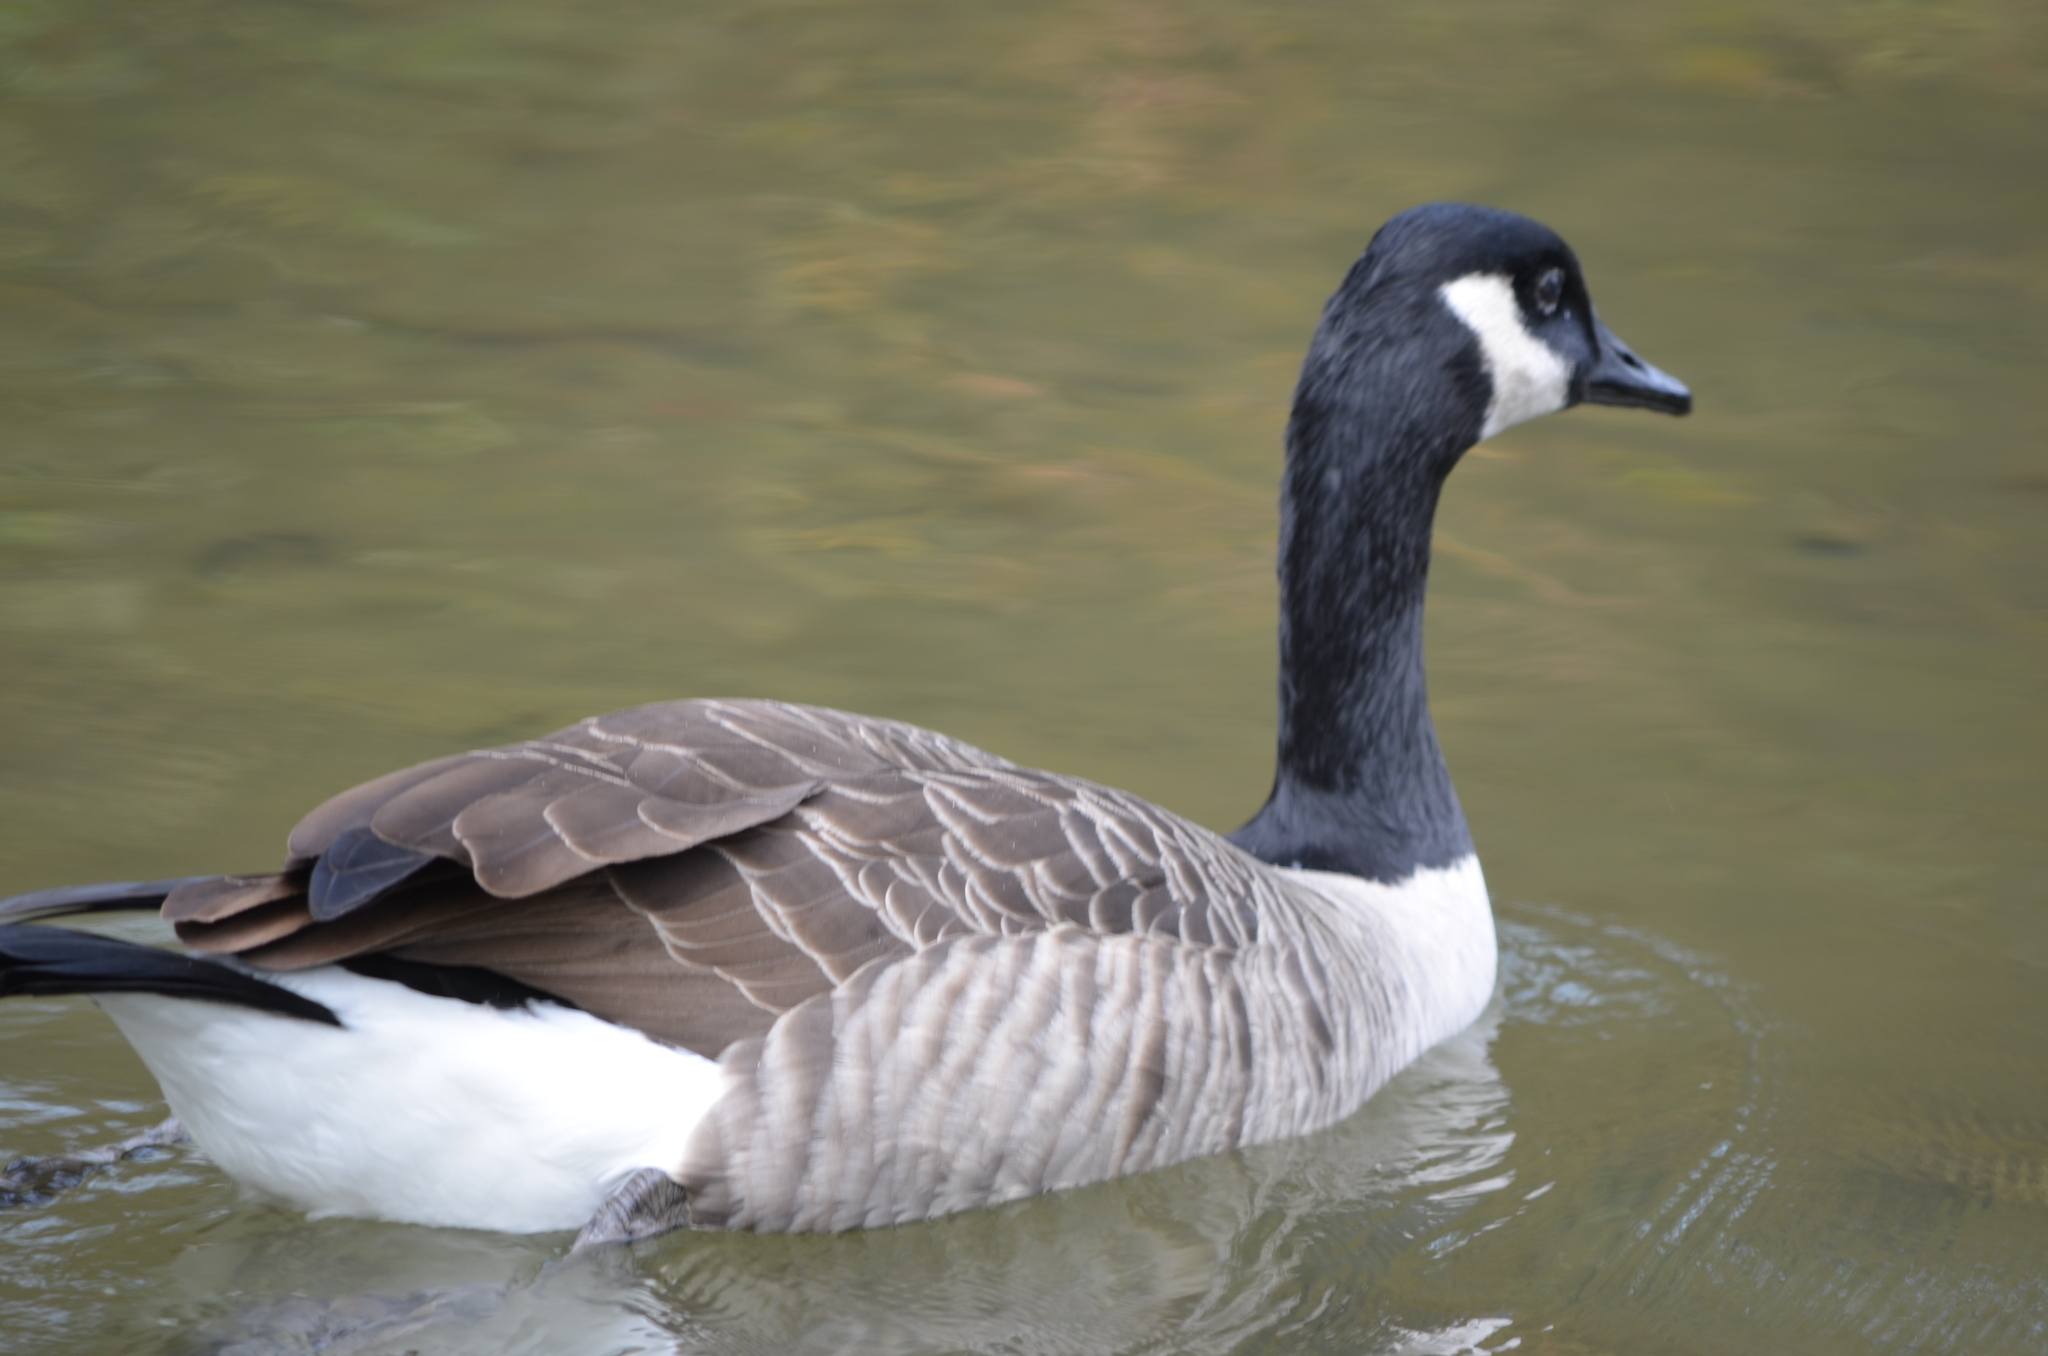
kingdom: Animalia
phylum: Chordata
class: Aves
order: Anseriformes
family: Anatidae
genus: Branta
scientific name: Branta canadensis
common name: Canada goose
